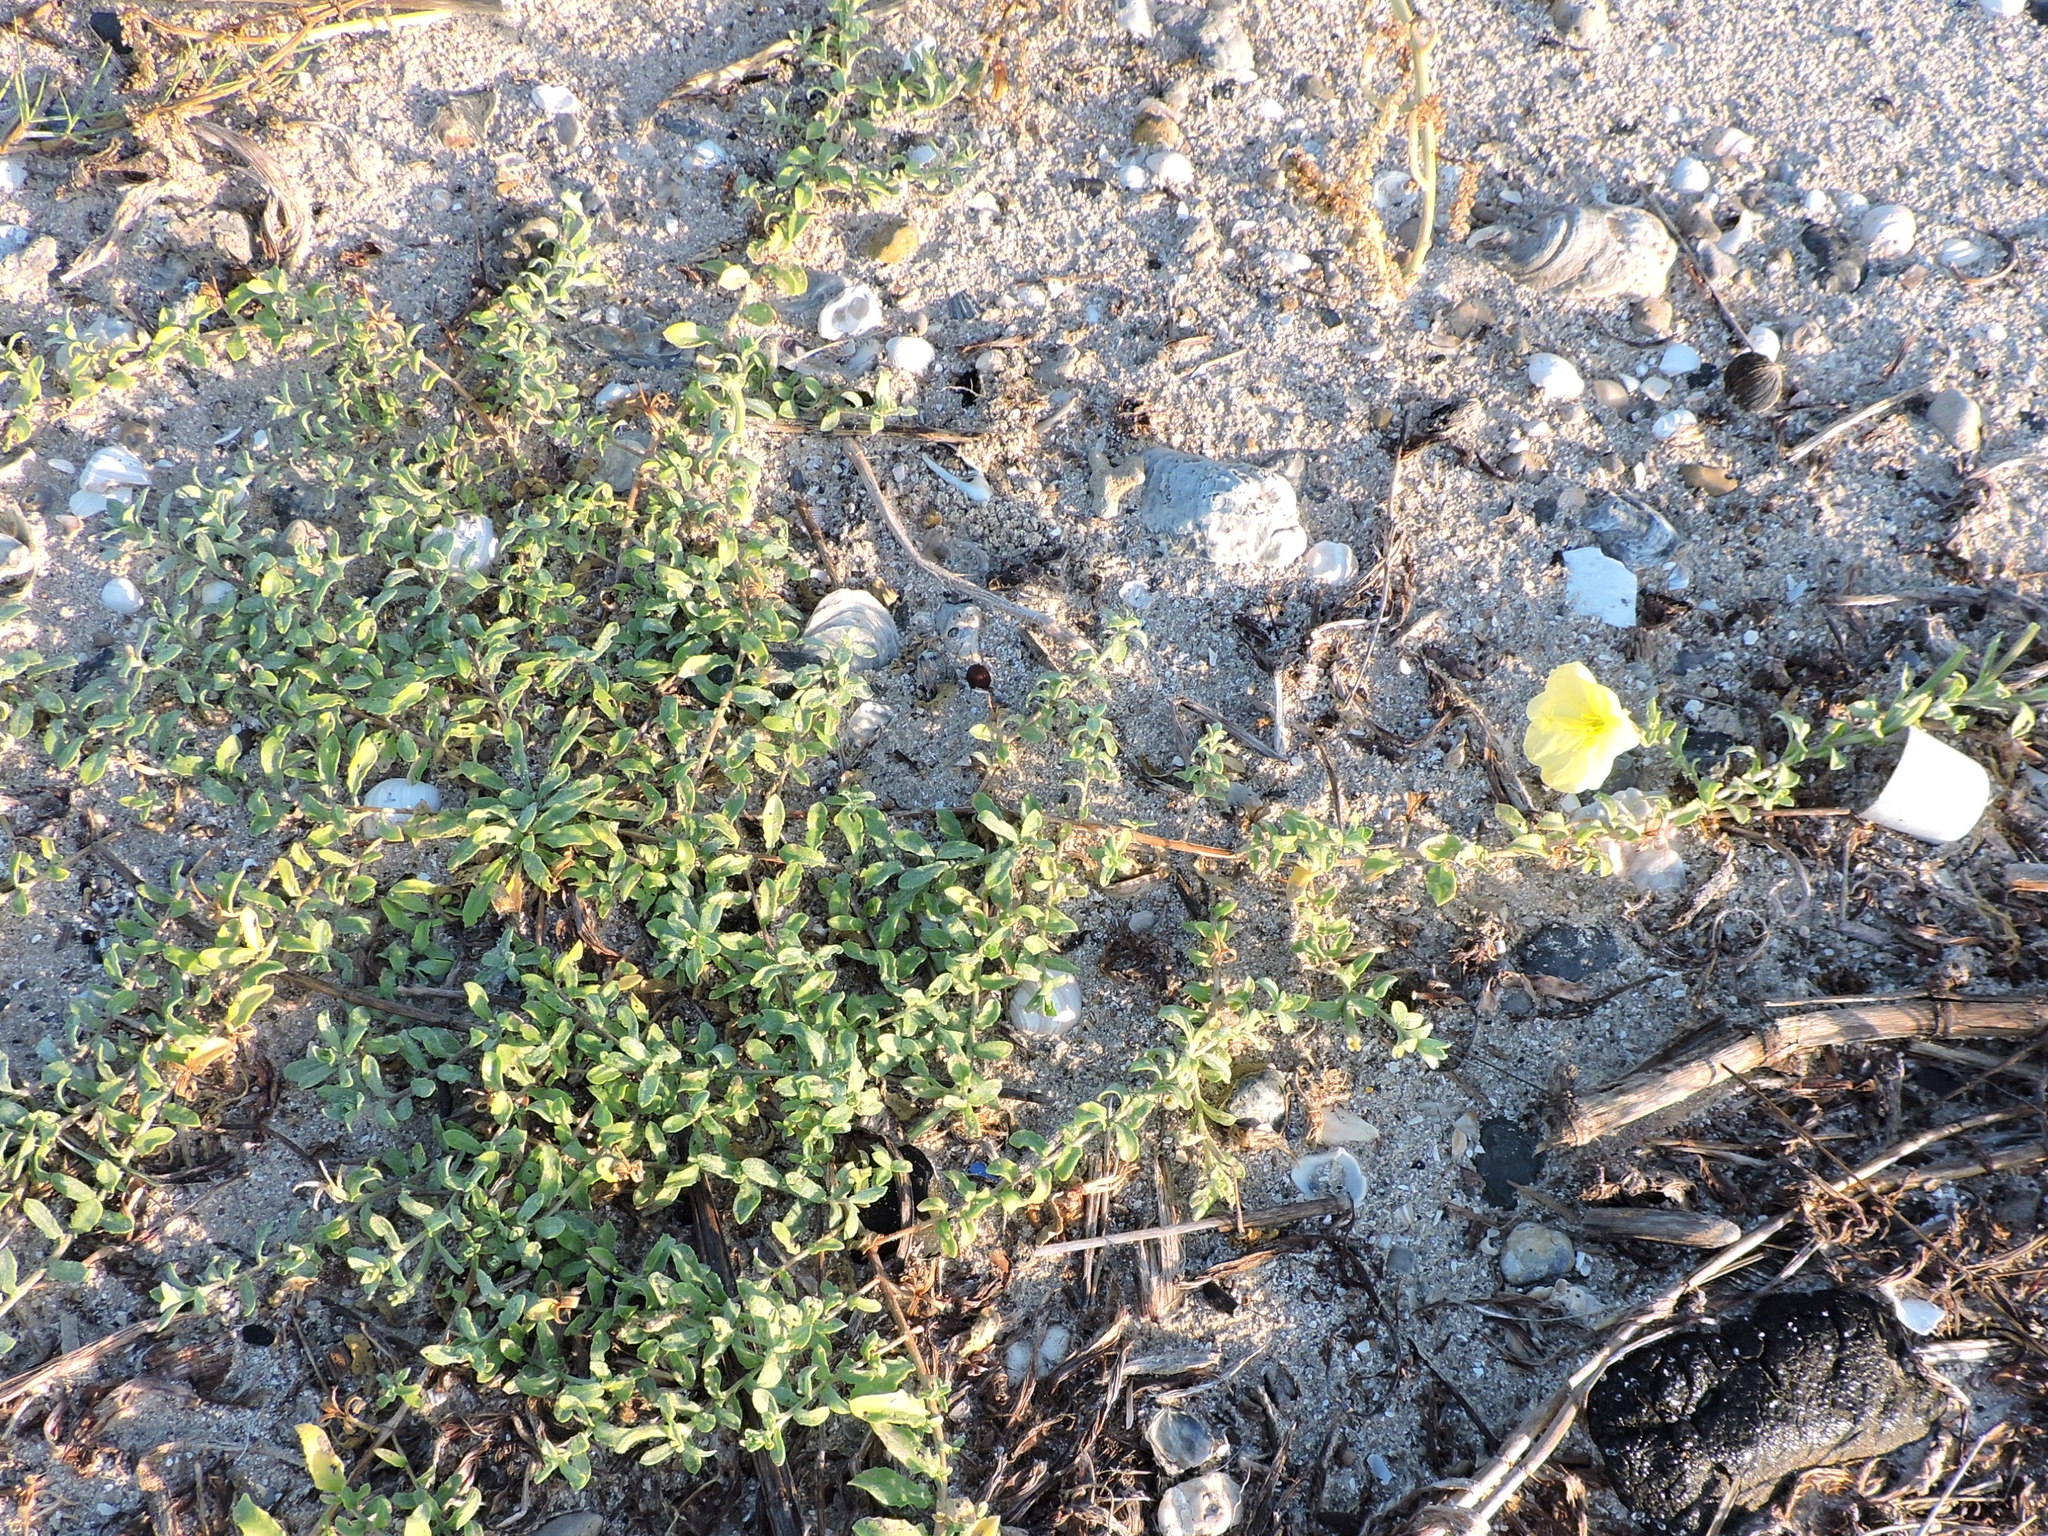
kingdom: Plantae
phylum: Tracheophyta
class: Magnoliopsida
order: Myrtales
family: Onagraceae
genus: Oenothera
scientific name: Oenothera drummondii
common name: Beach evening-primrose
